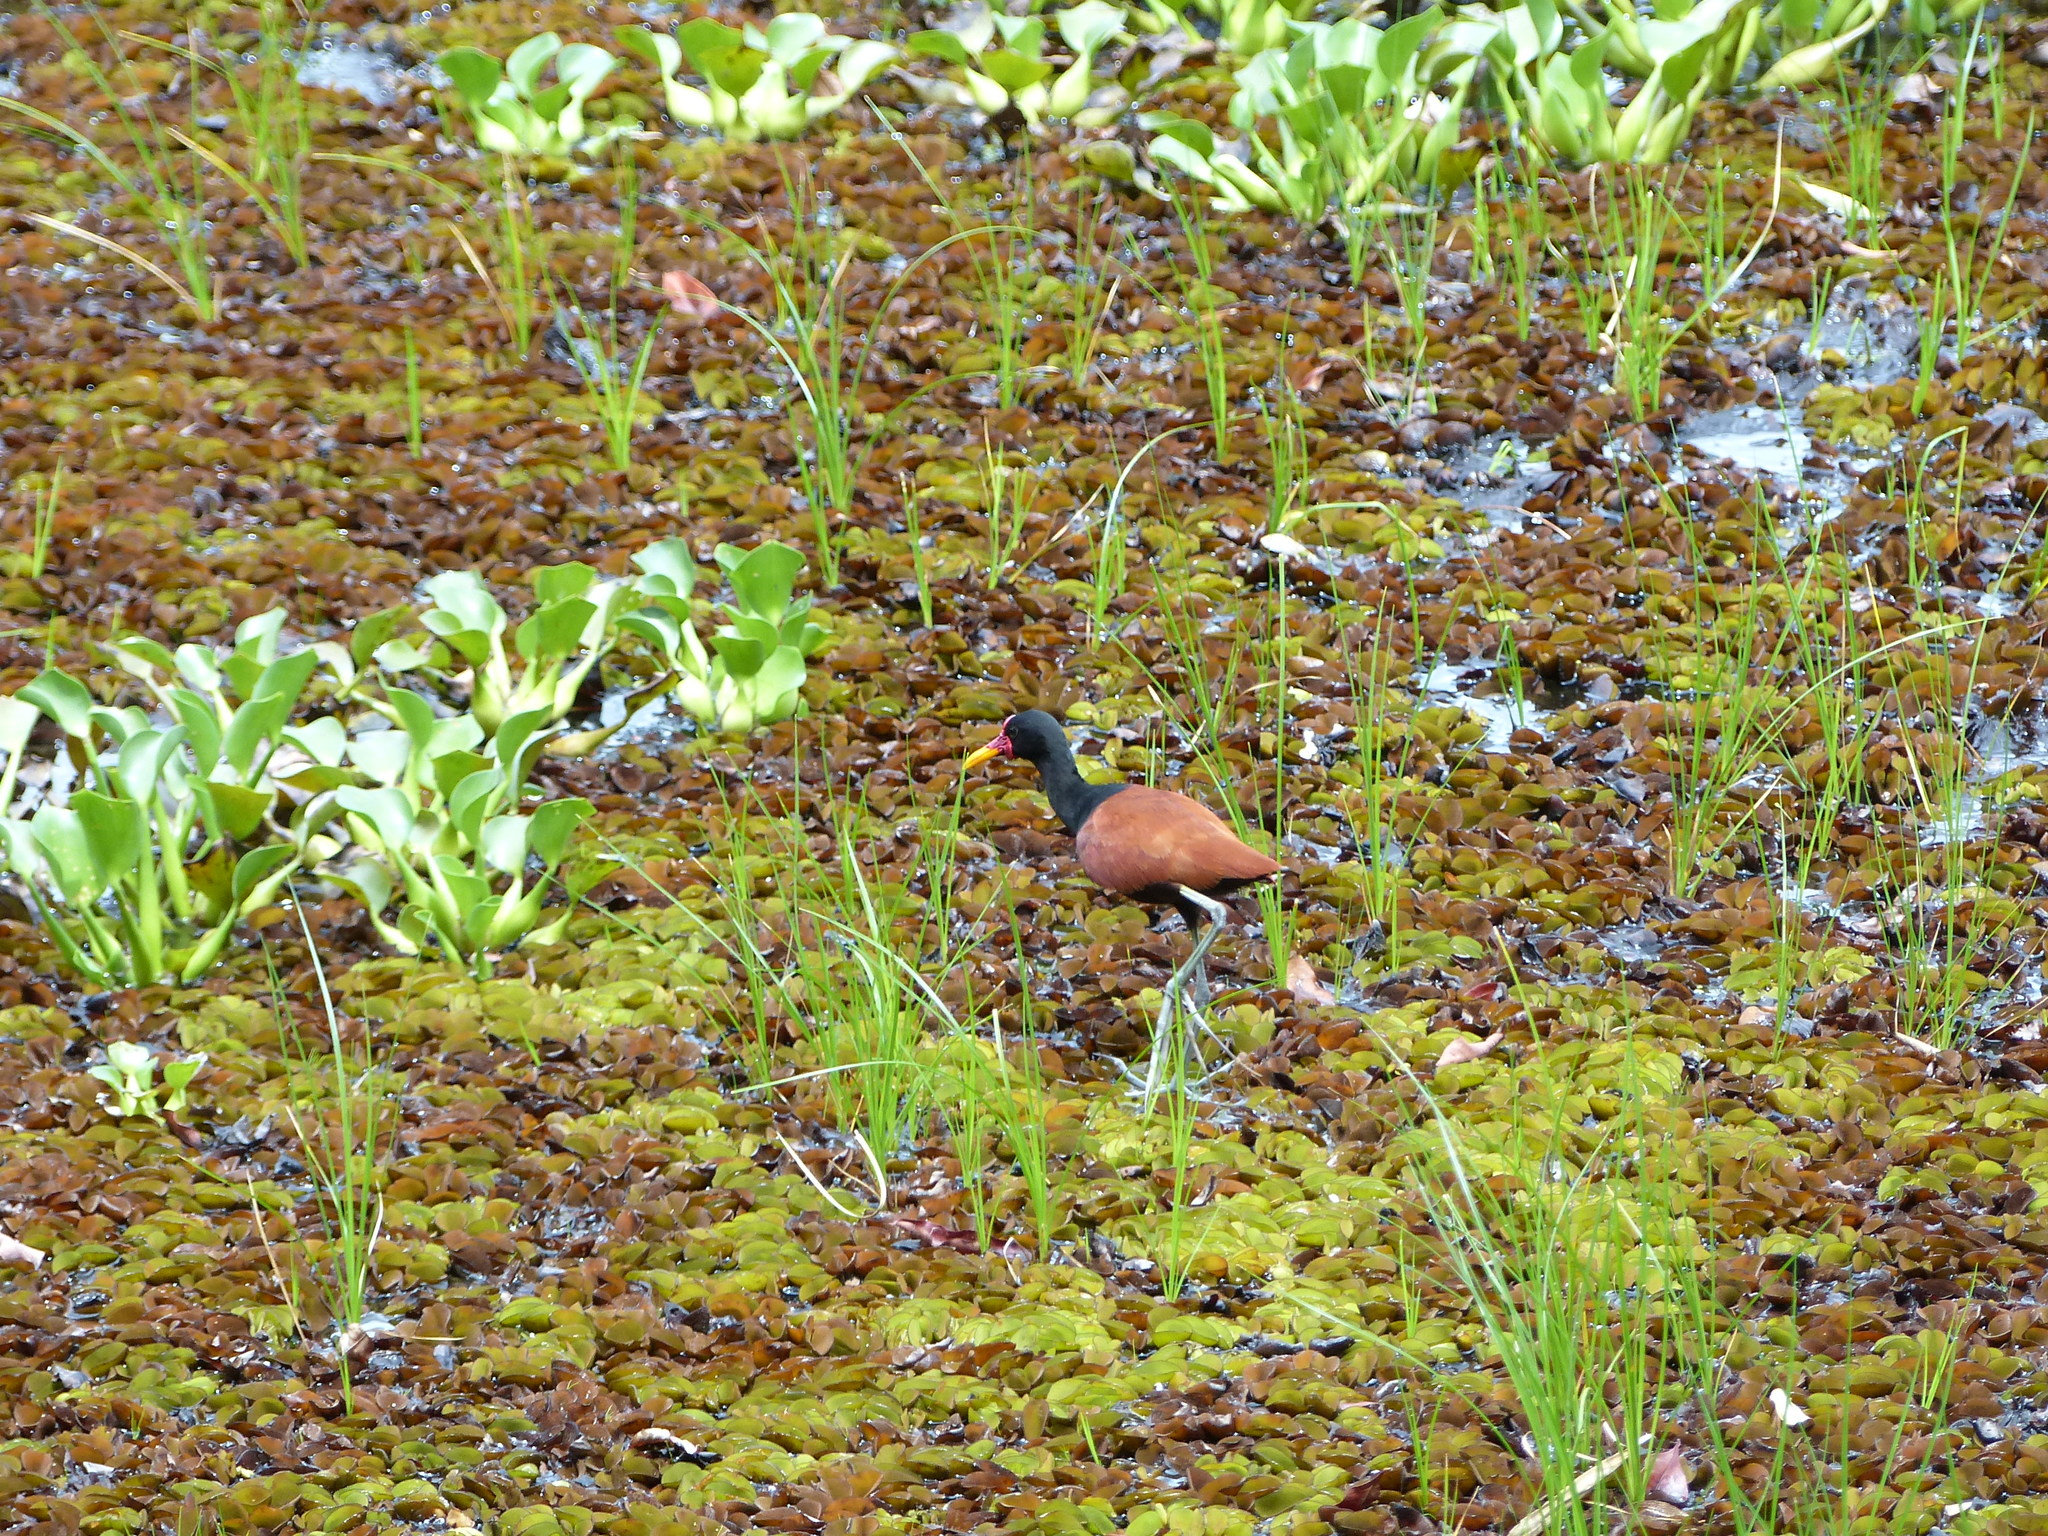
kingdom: Animalia
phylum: Chordata
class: Aves
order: Charadriiformes
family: Jacanidae
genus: Jacana
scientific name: Jacana jacana
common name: Wattled jacana
